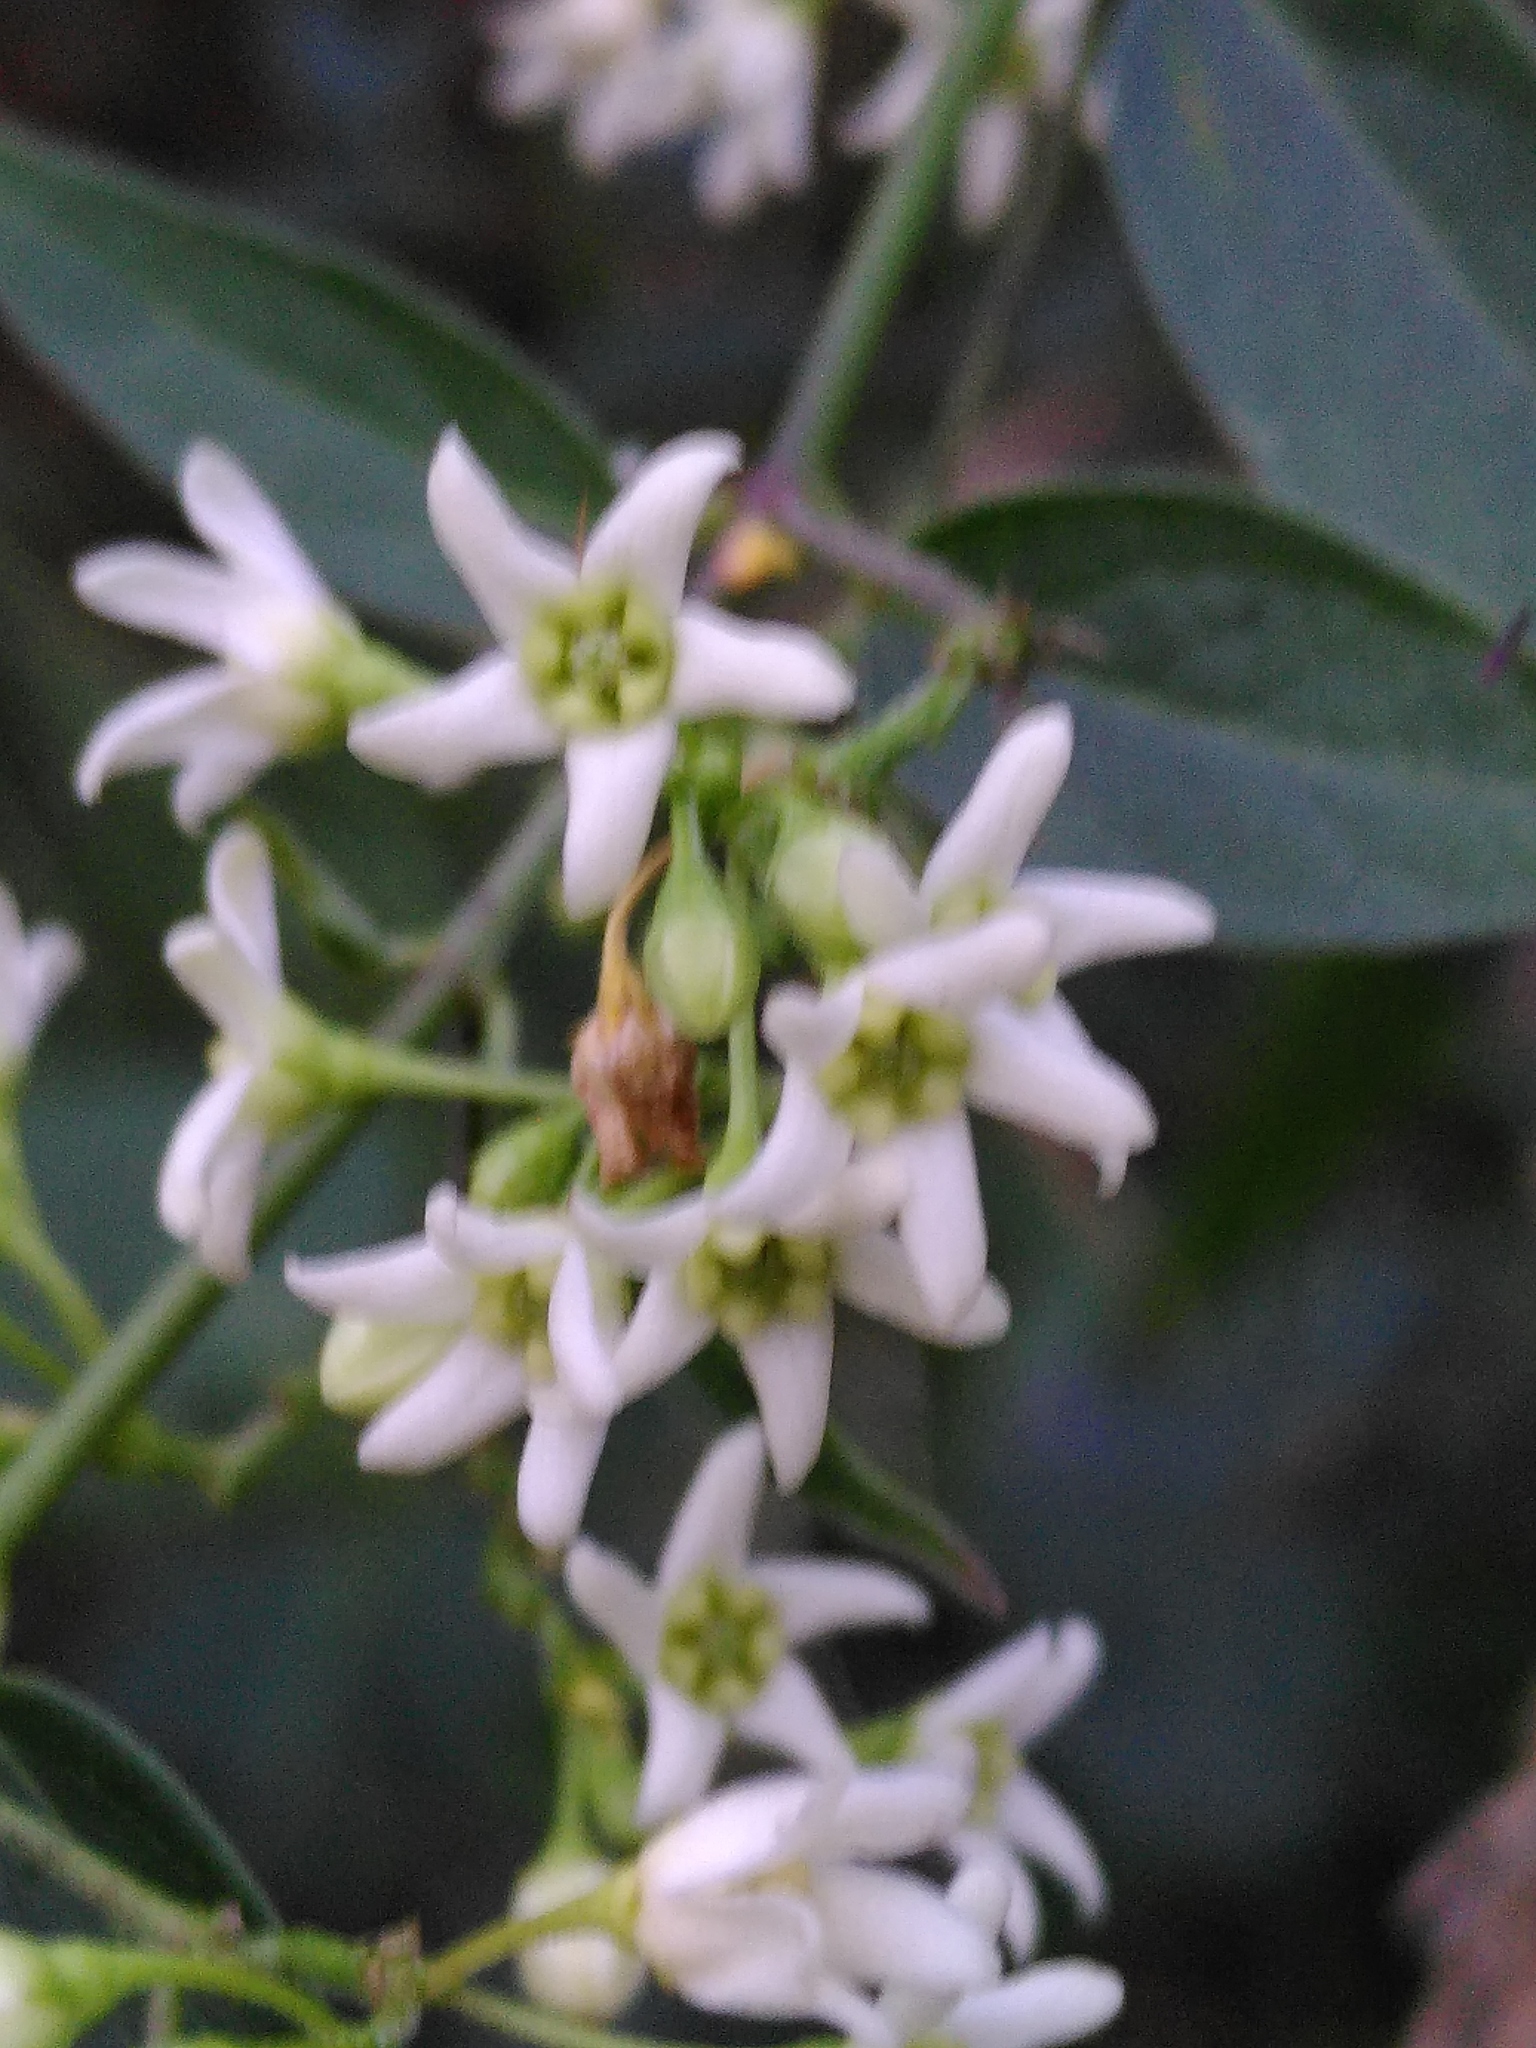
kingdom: Plantae
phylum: Tracheophyta
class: Magnoliopsida
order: Gentianales
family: Apocynaceae
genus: Vincetoxicum
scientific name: Vincetoxicum hirundinaria
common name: White swallowwort
